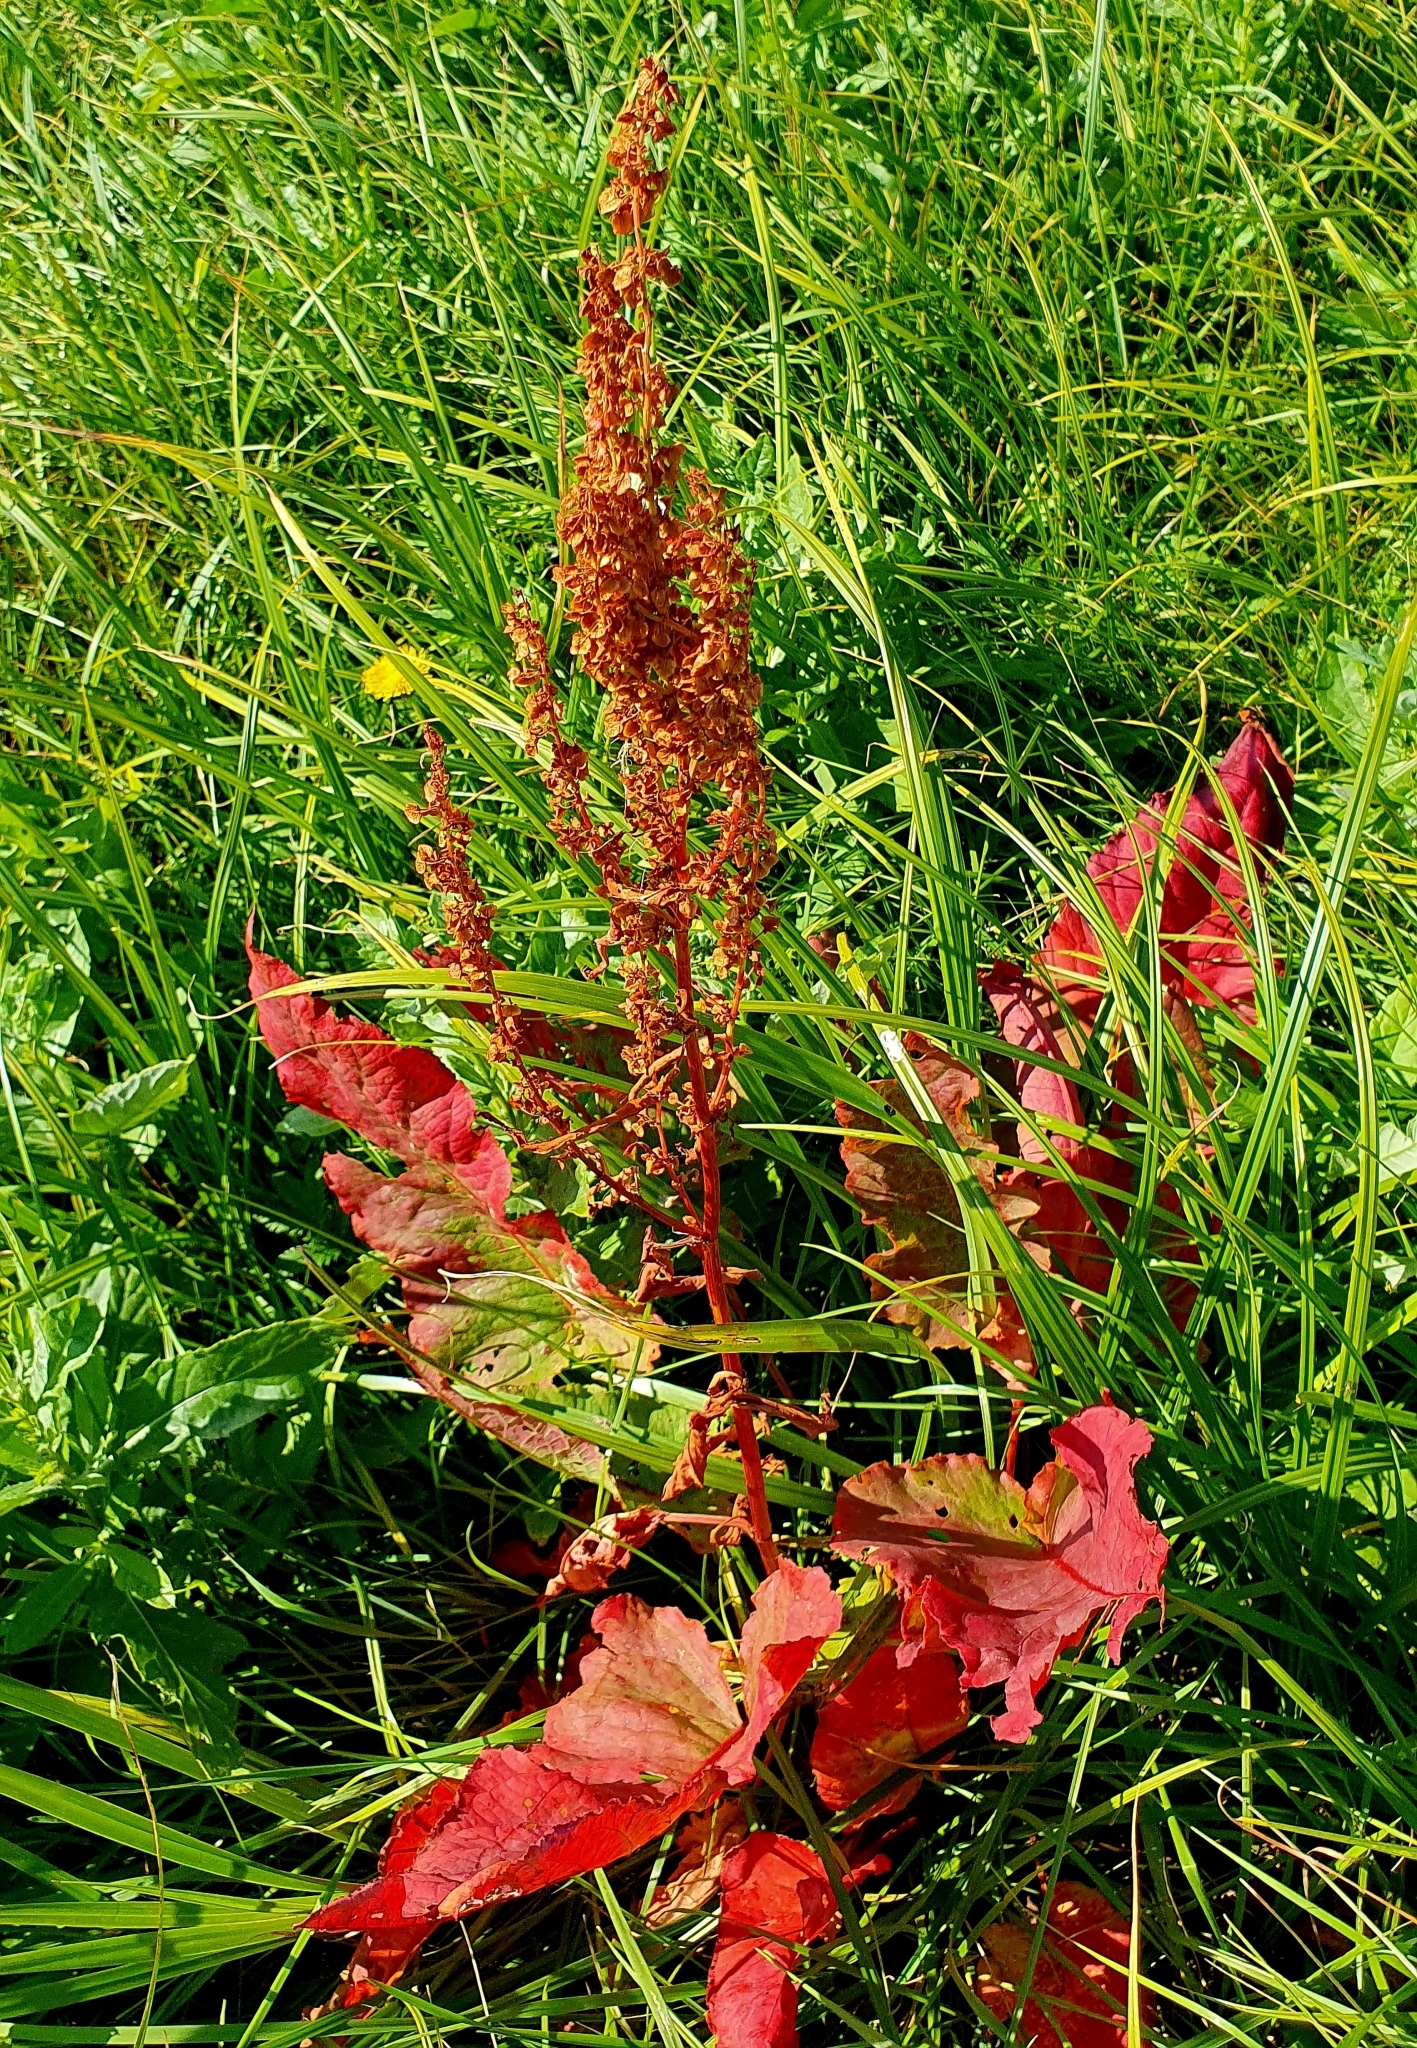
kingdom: Plantae
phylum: Tracheophyta
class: Magnoliopsida
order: Caryophyllales
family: Polygonaceae
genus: Rumex
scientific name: Rumex confertus
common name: Russian dock
